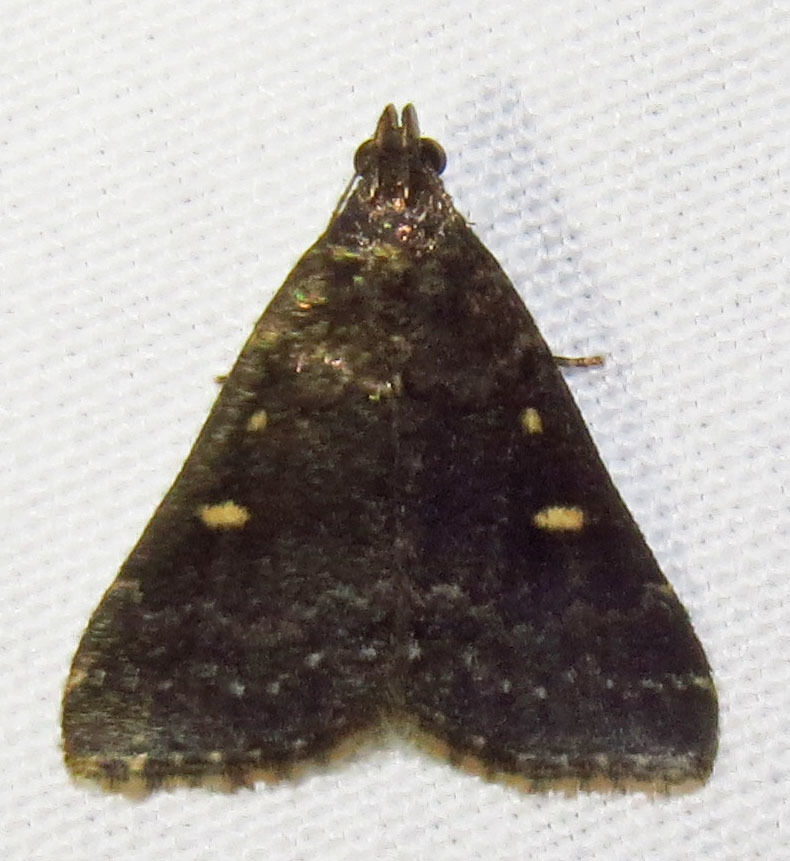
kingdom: Animalia
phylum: Arthropoda
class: Insecta
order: Lepidoptera
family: Erebidae
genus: Tetanolita
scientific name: Tetanolita mynesalis
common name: Smoky tetanolita moth
